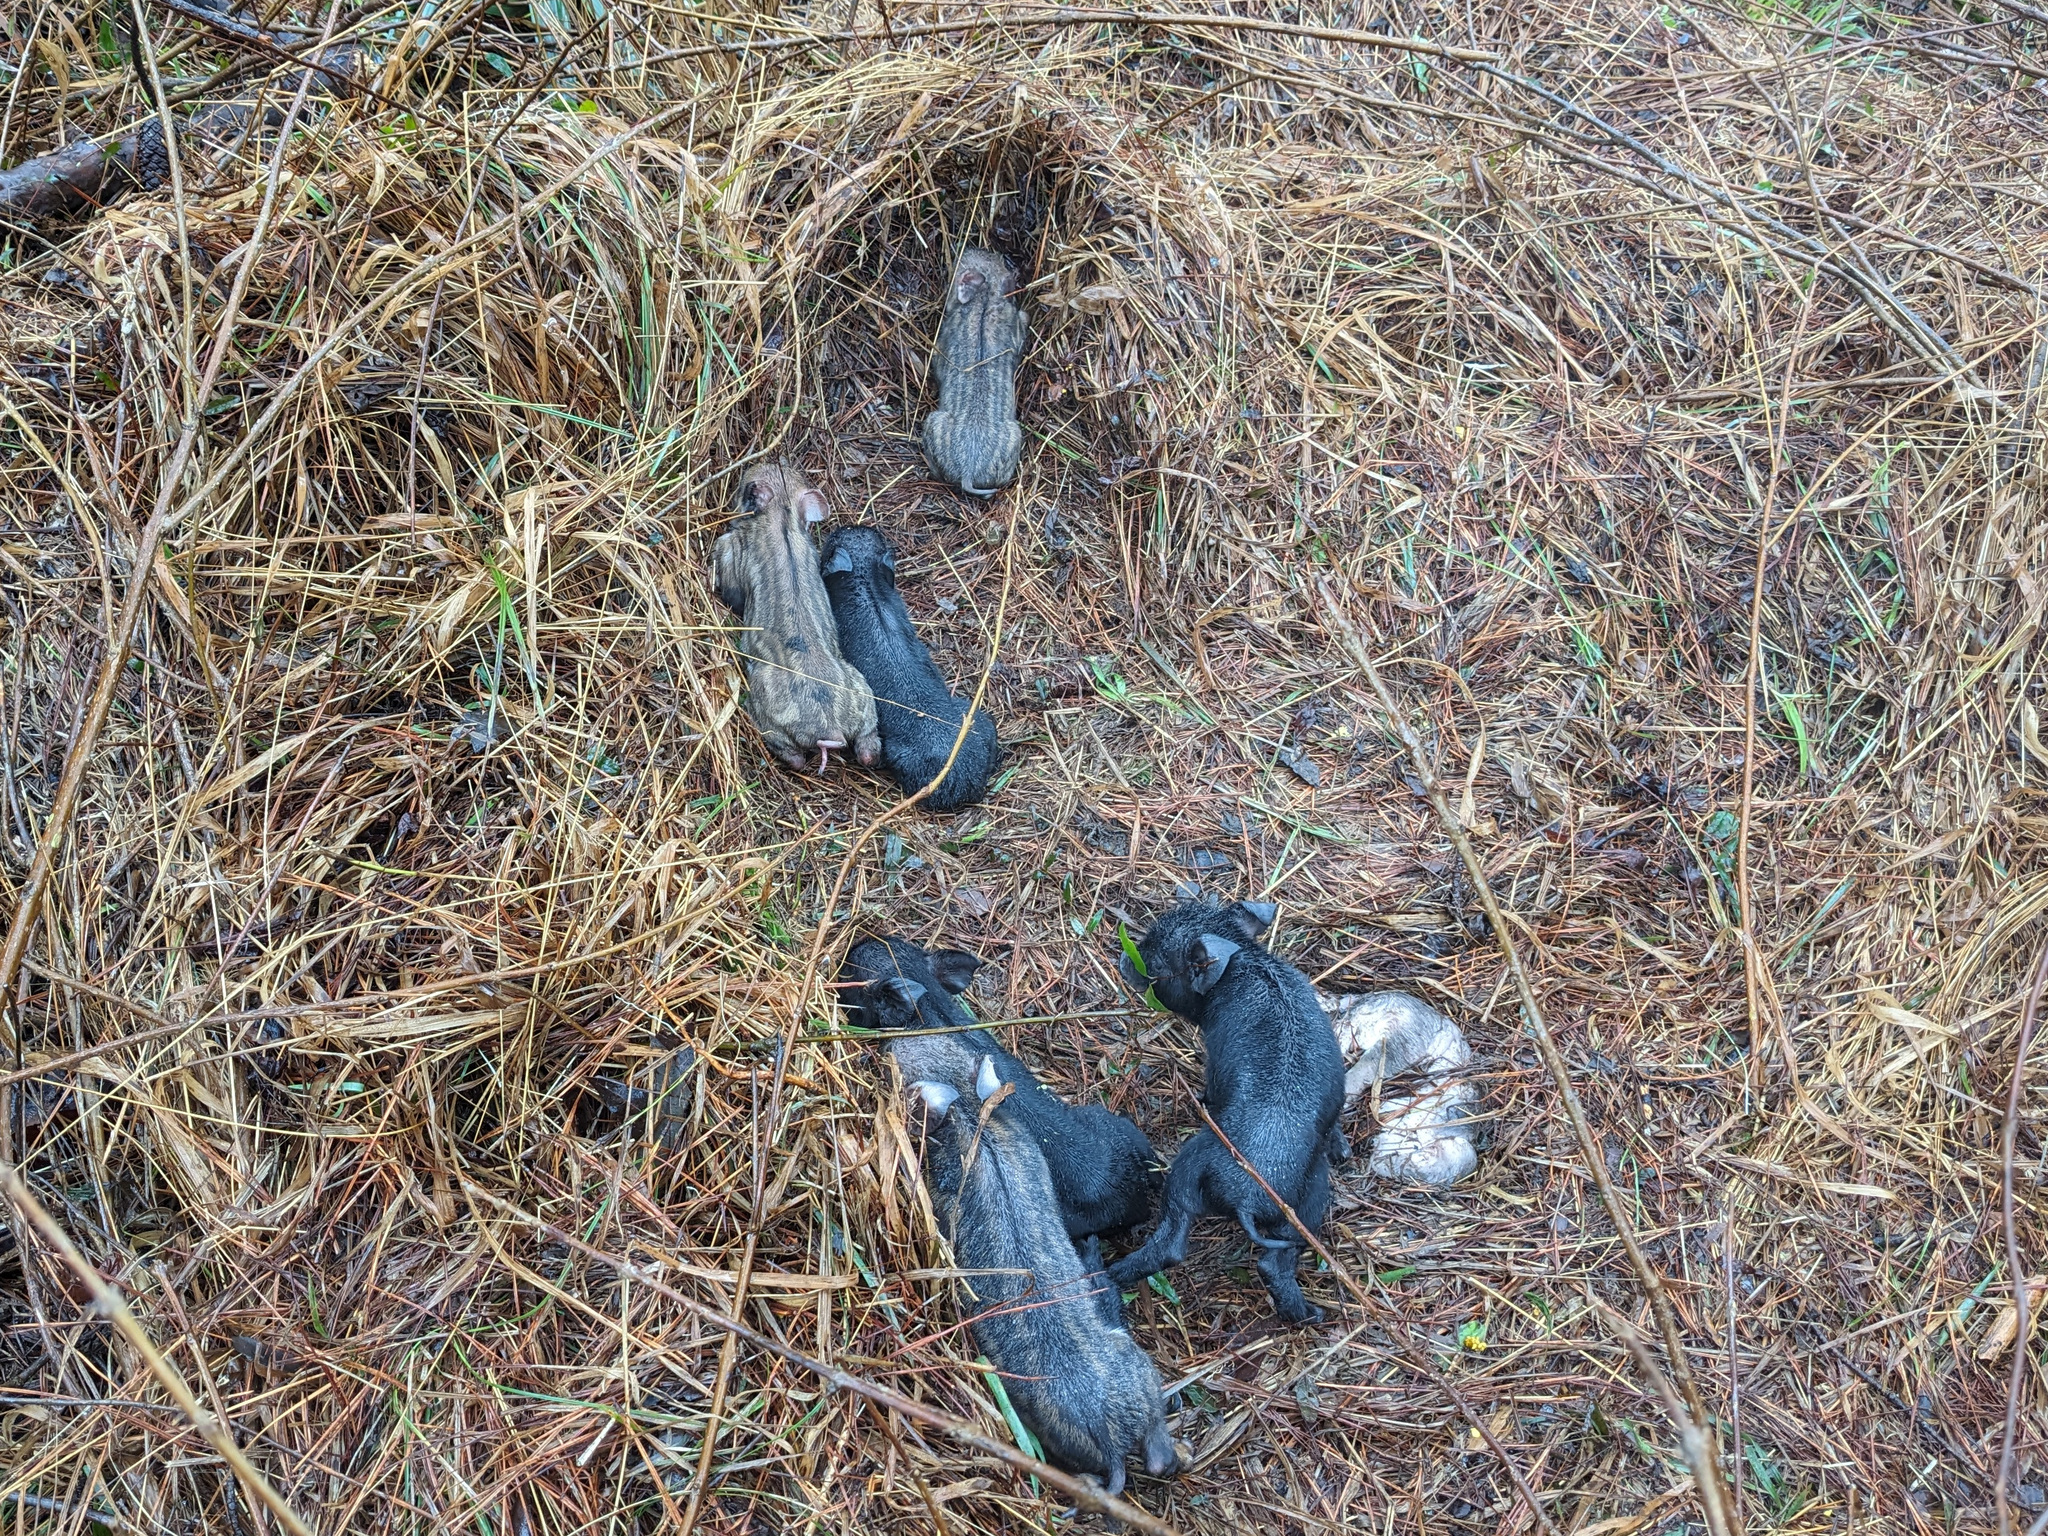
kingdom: Animalia
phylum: Chordata
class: Mammalia
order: Artiodactyla
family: Suidae
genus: Sus
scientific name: Sus scrofa
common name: Wild boar
